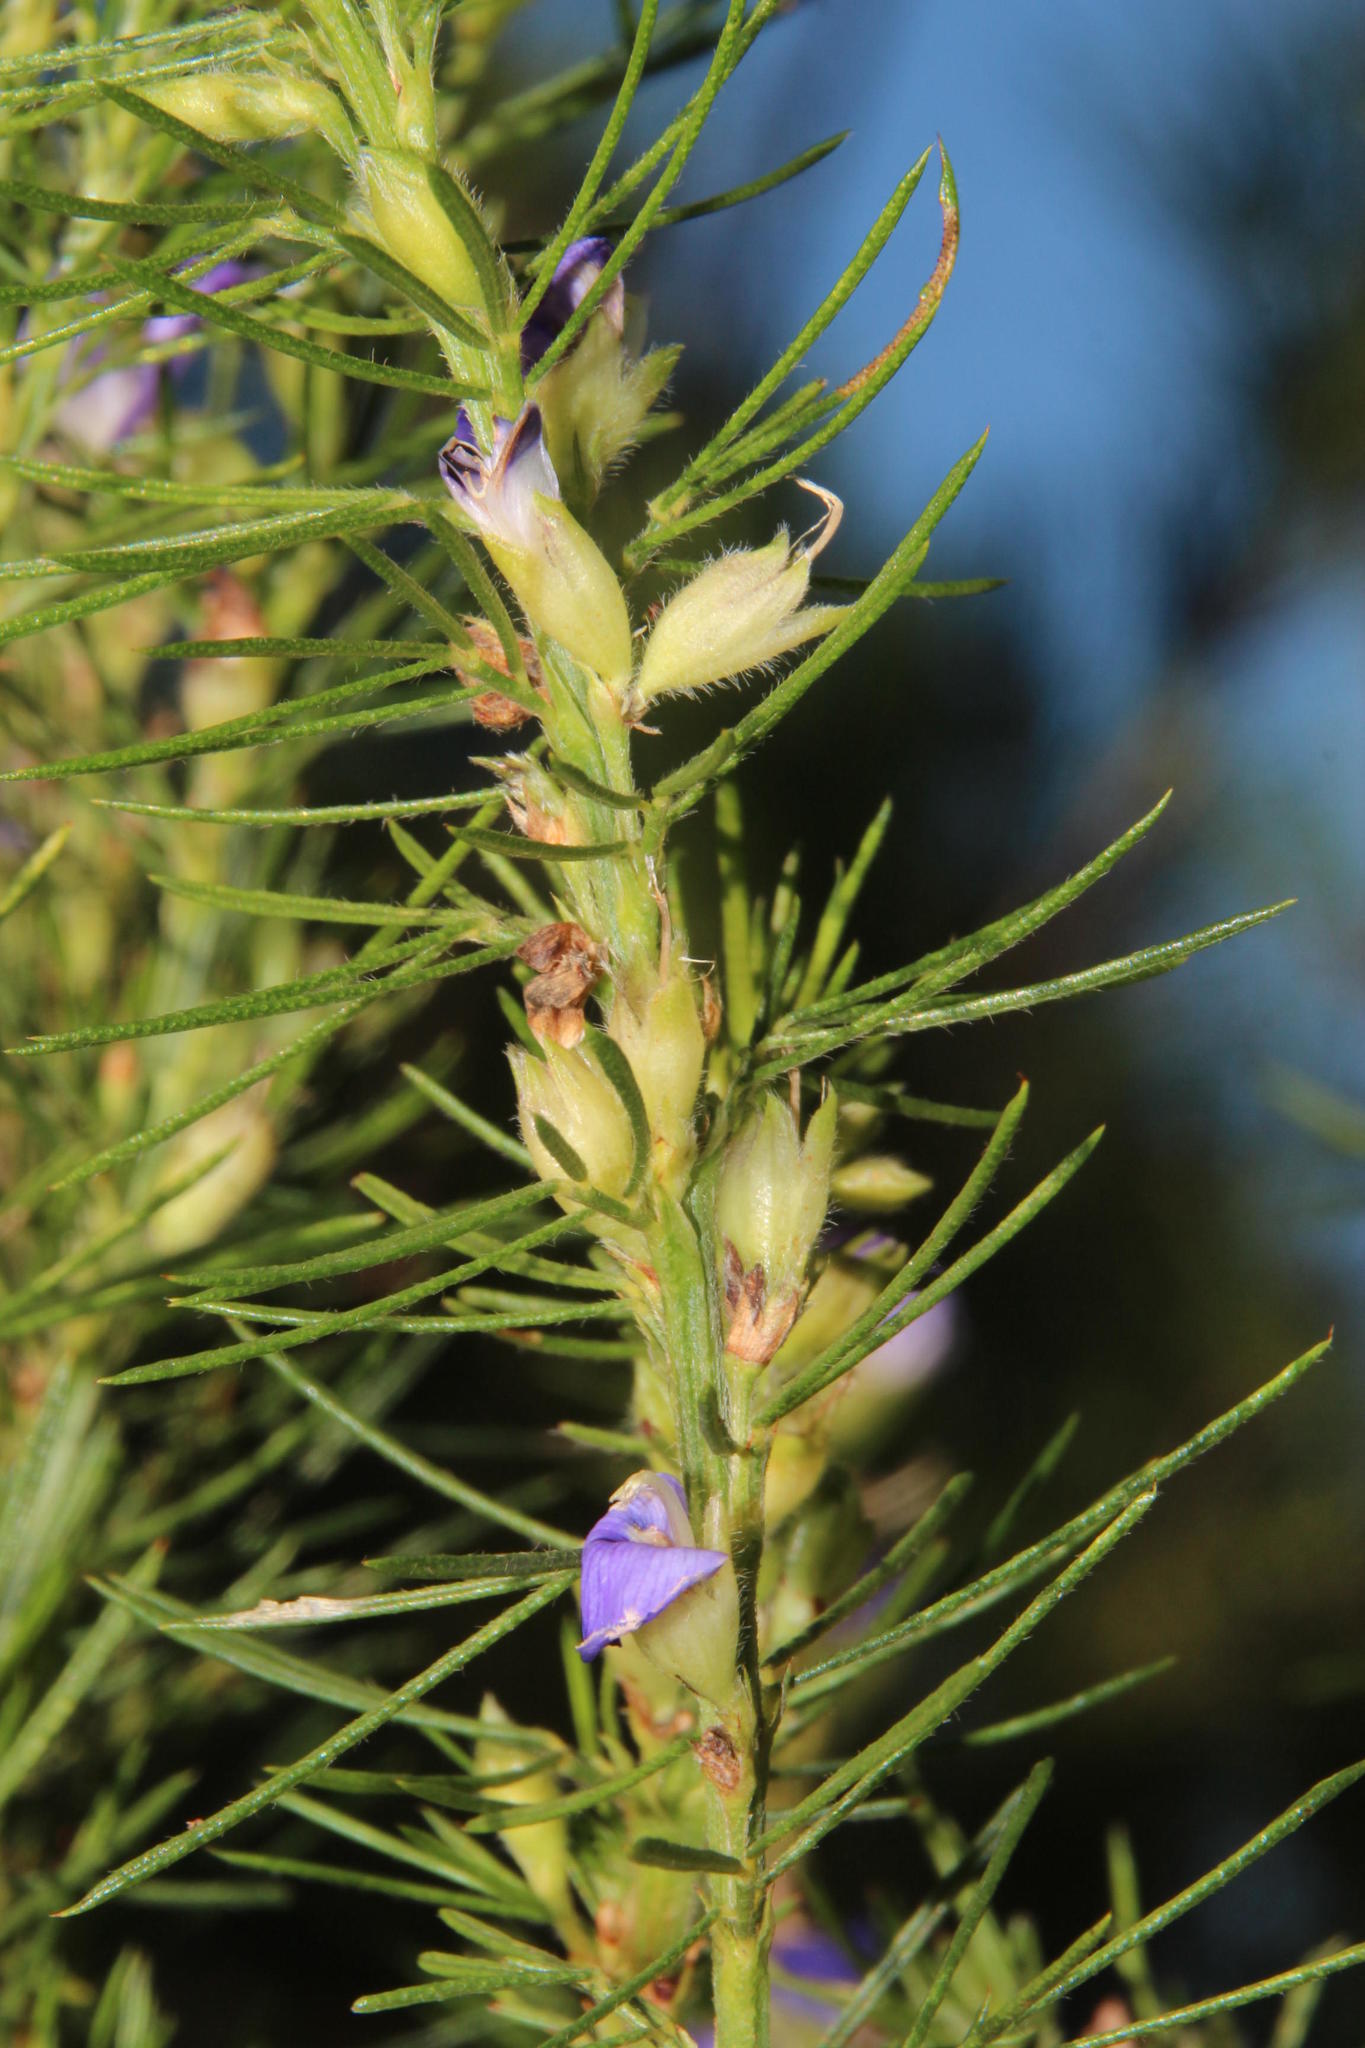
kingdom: Plantae
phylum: Tracheophyta
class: Magnoliopsida
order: Fabales
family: Fabaceae
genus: Psoralea
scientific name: Psoralea pinnata
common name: African scurfpea
